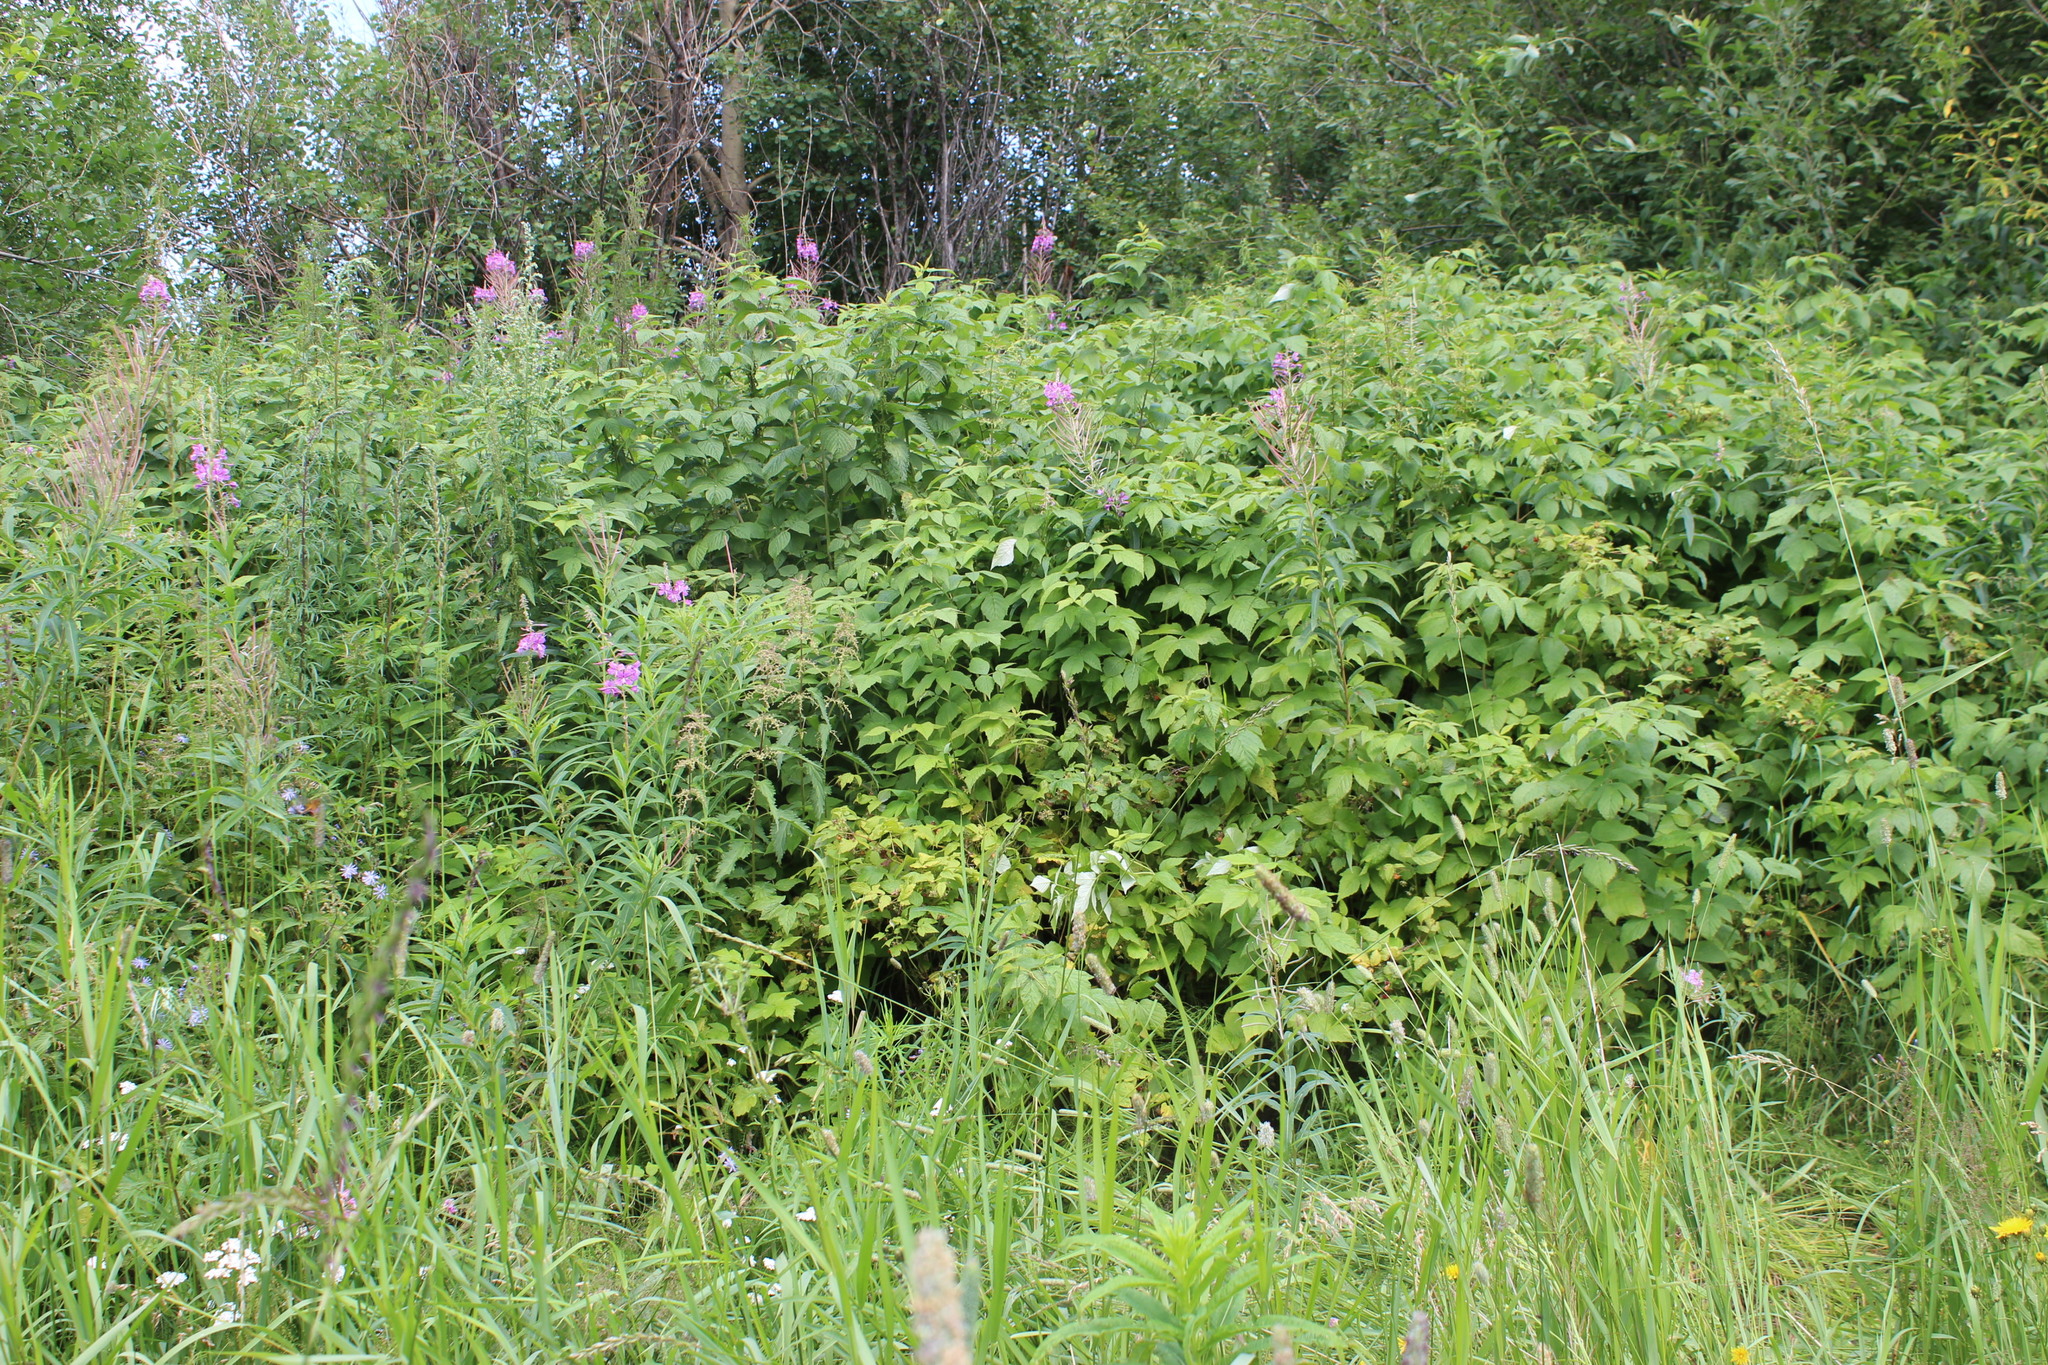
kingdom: Plantae
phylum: Tracheophyta
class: Magnoliopsida
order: Myrtales
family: Onagraceae
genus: Chamaenerion
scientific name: Chamaenerion angustifolium
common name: Fireweed
